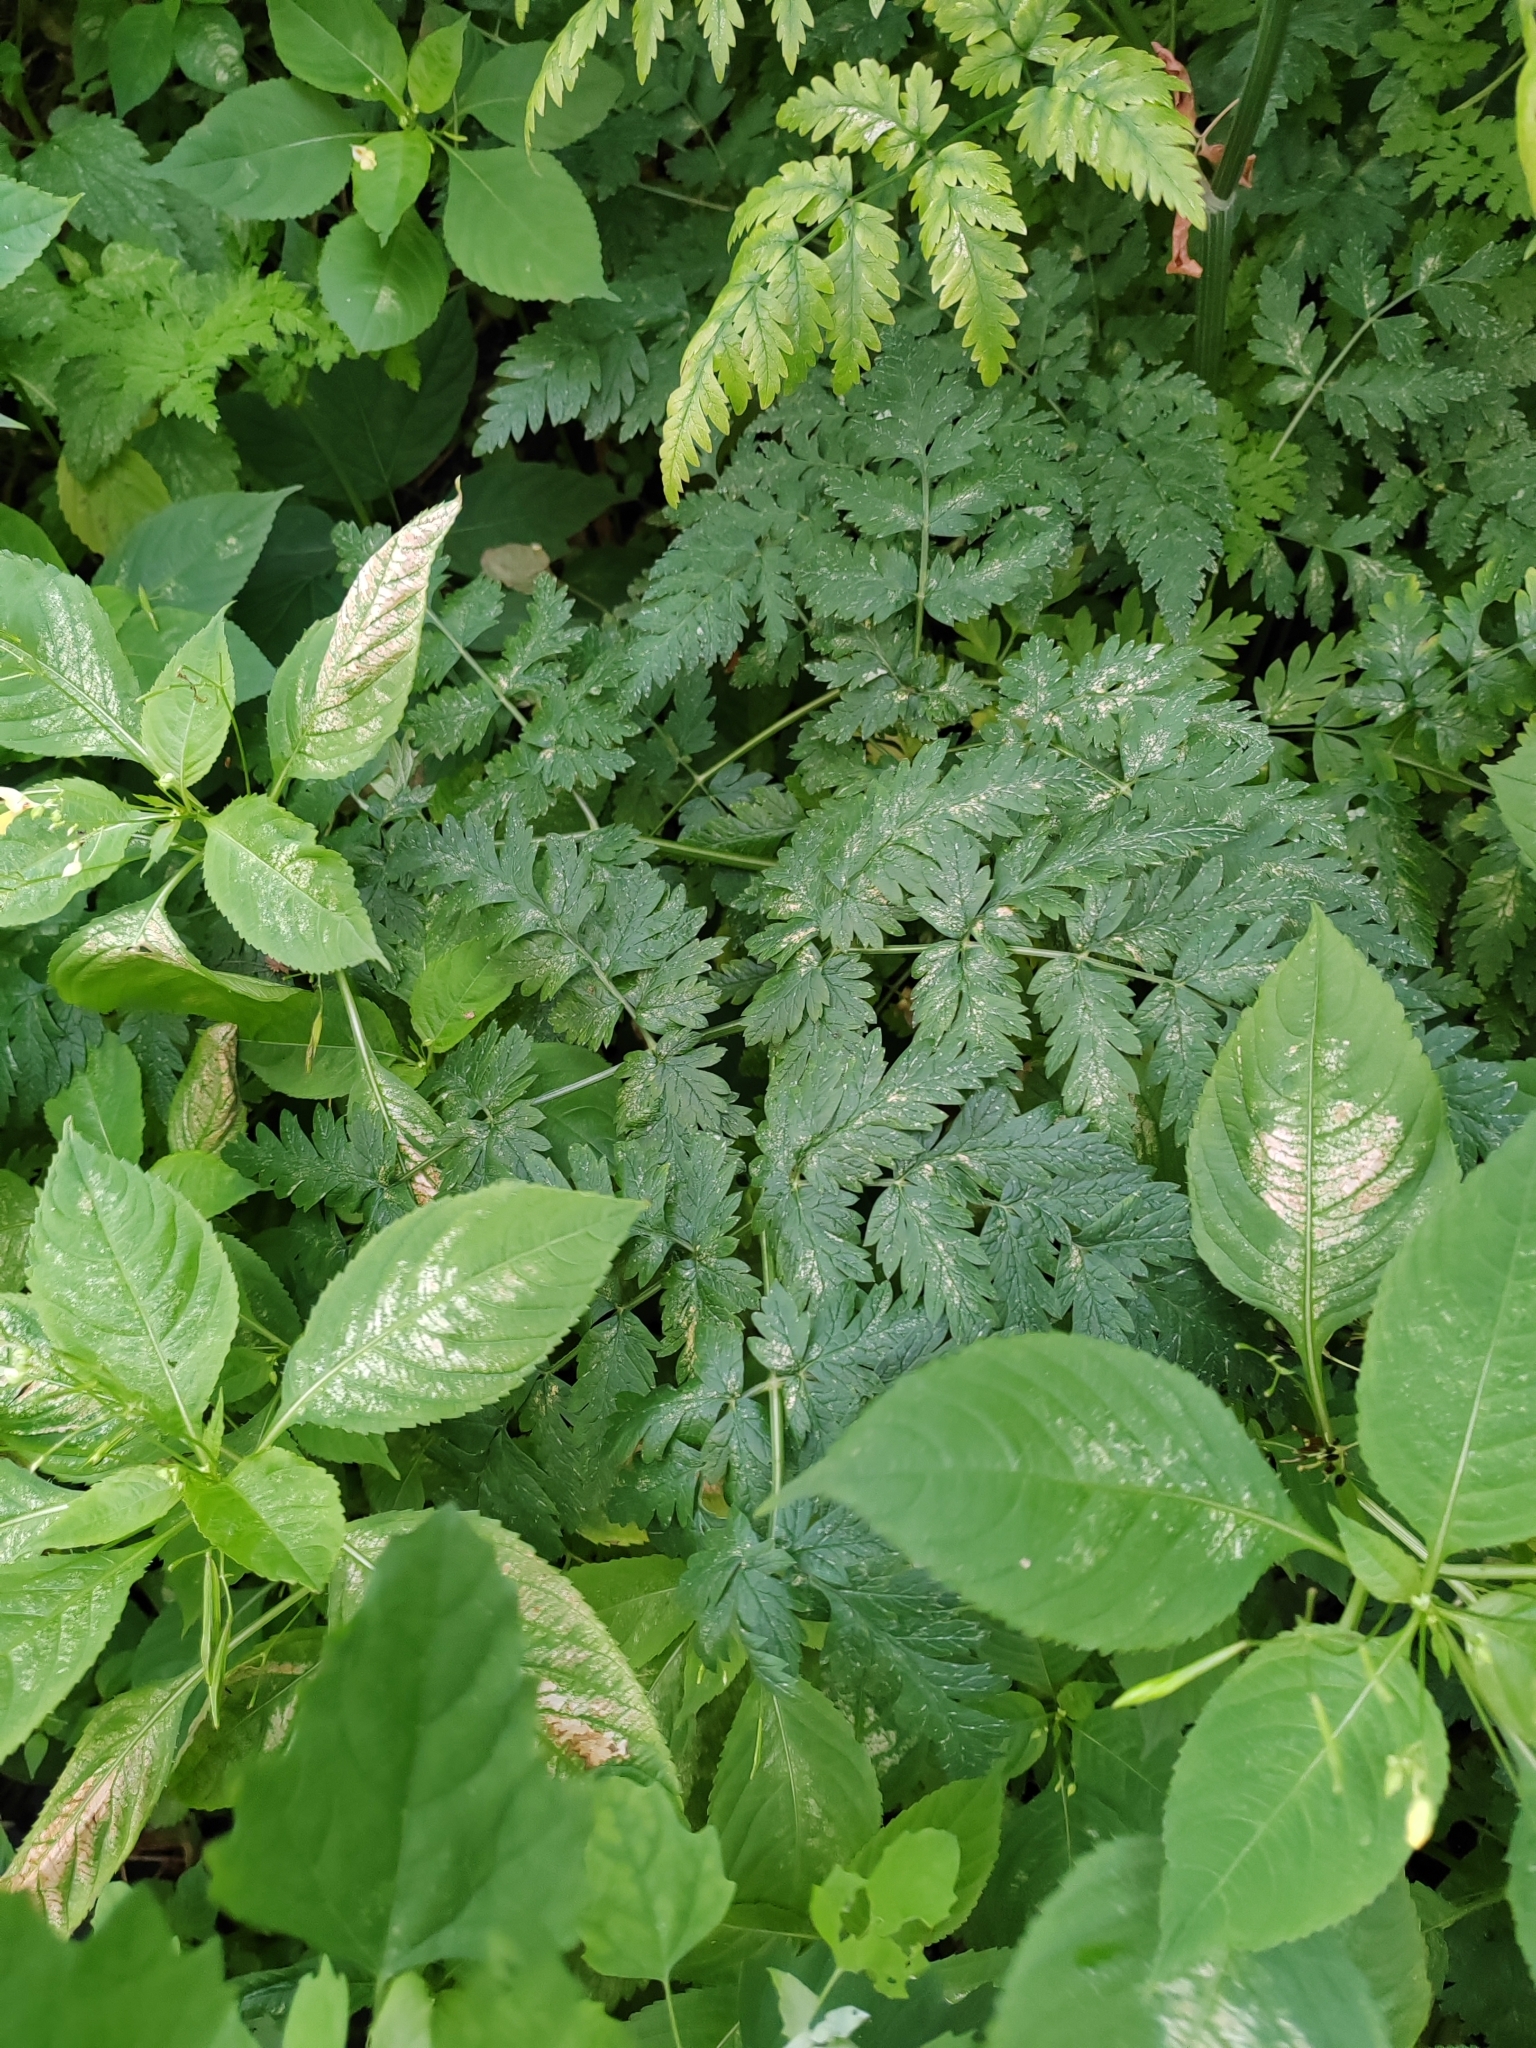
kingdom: Plantae
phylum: Tracheophyta
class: Magnoliopsida
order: Apiales
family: Apiaceae
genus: Conium
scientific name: Conium maculatum
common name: Hemlock
